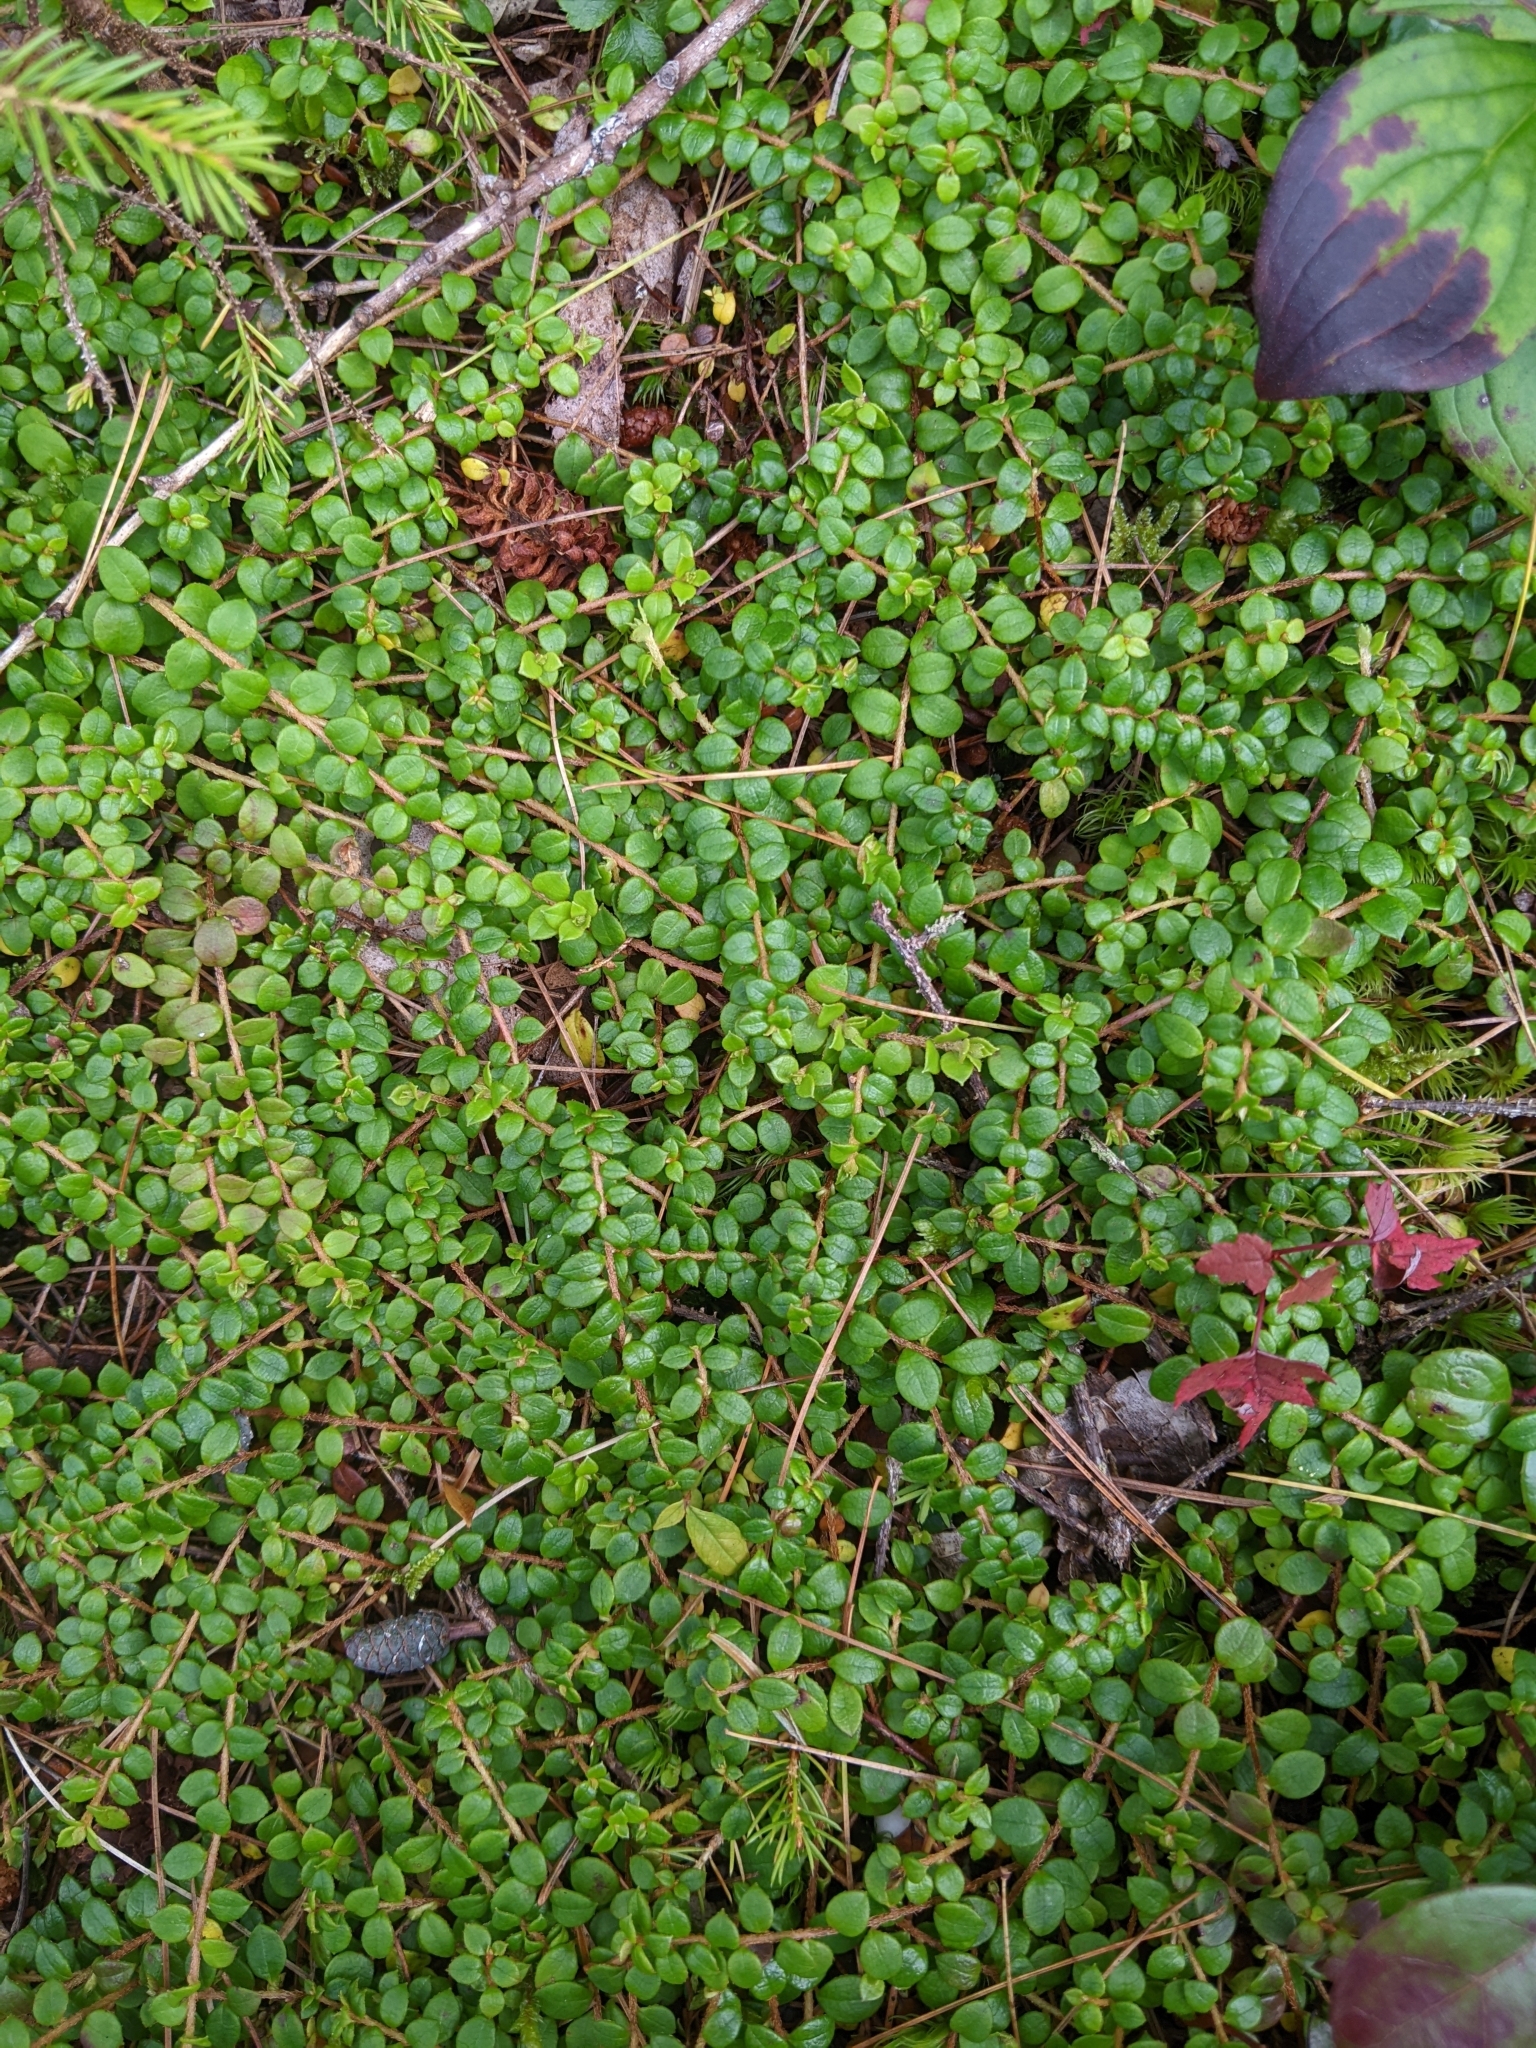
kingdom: Plantae
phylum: Tracheophyta
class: Magnoliopsida
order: Ericales
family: Ericaceae
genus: Gaultheria
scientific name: Gaultheria hispidula
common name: Cancer wintergreen
